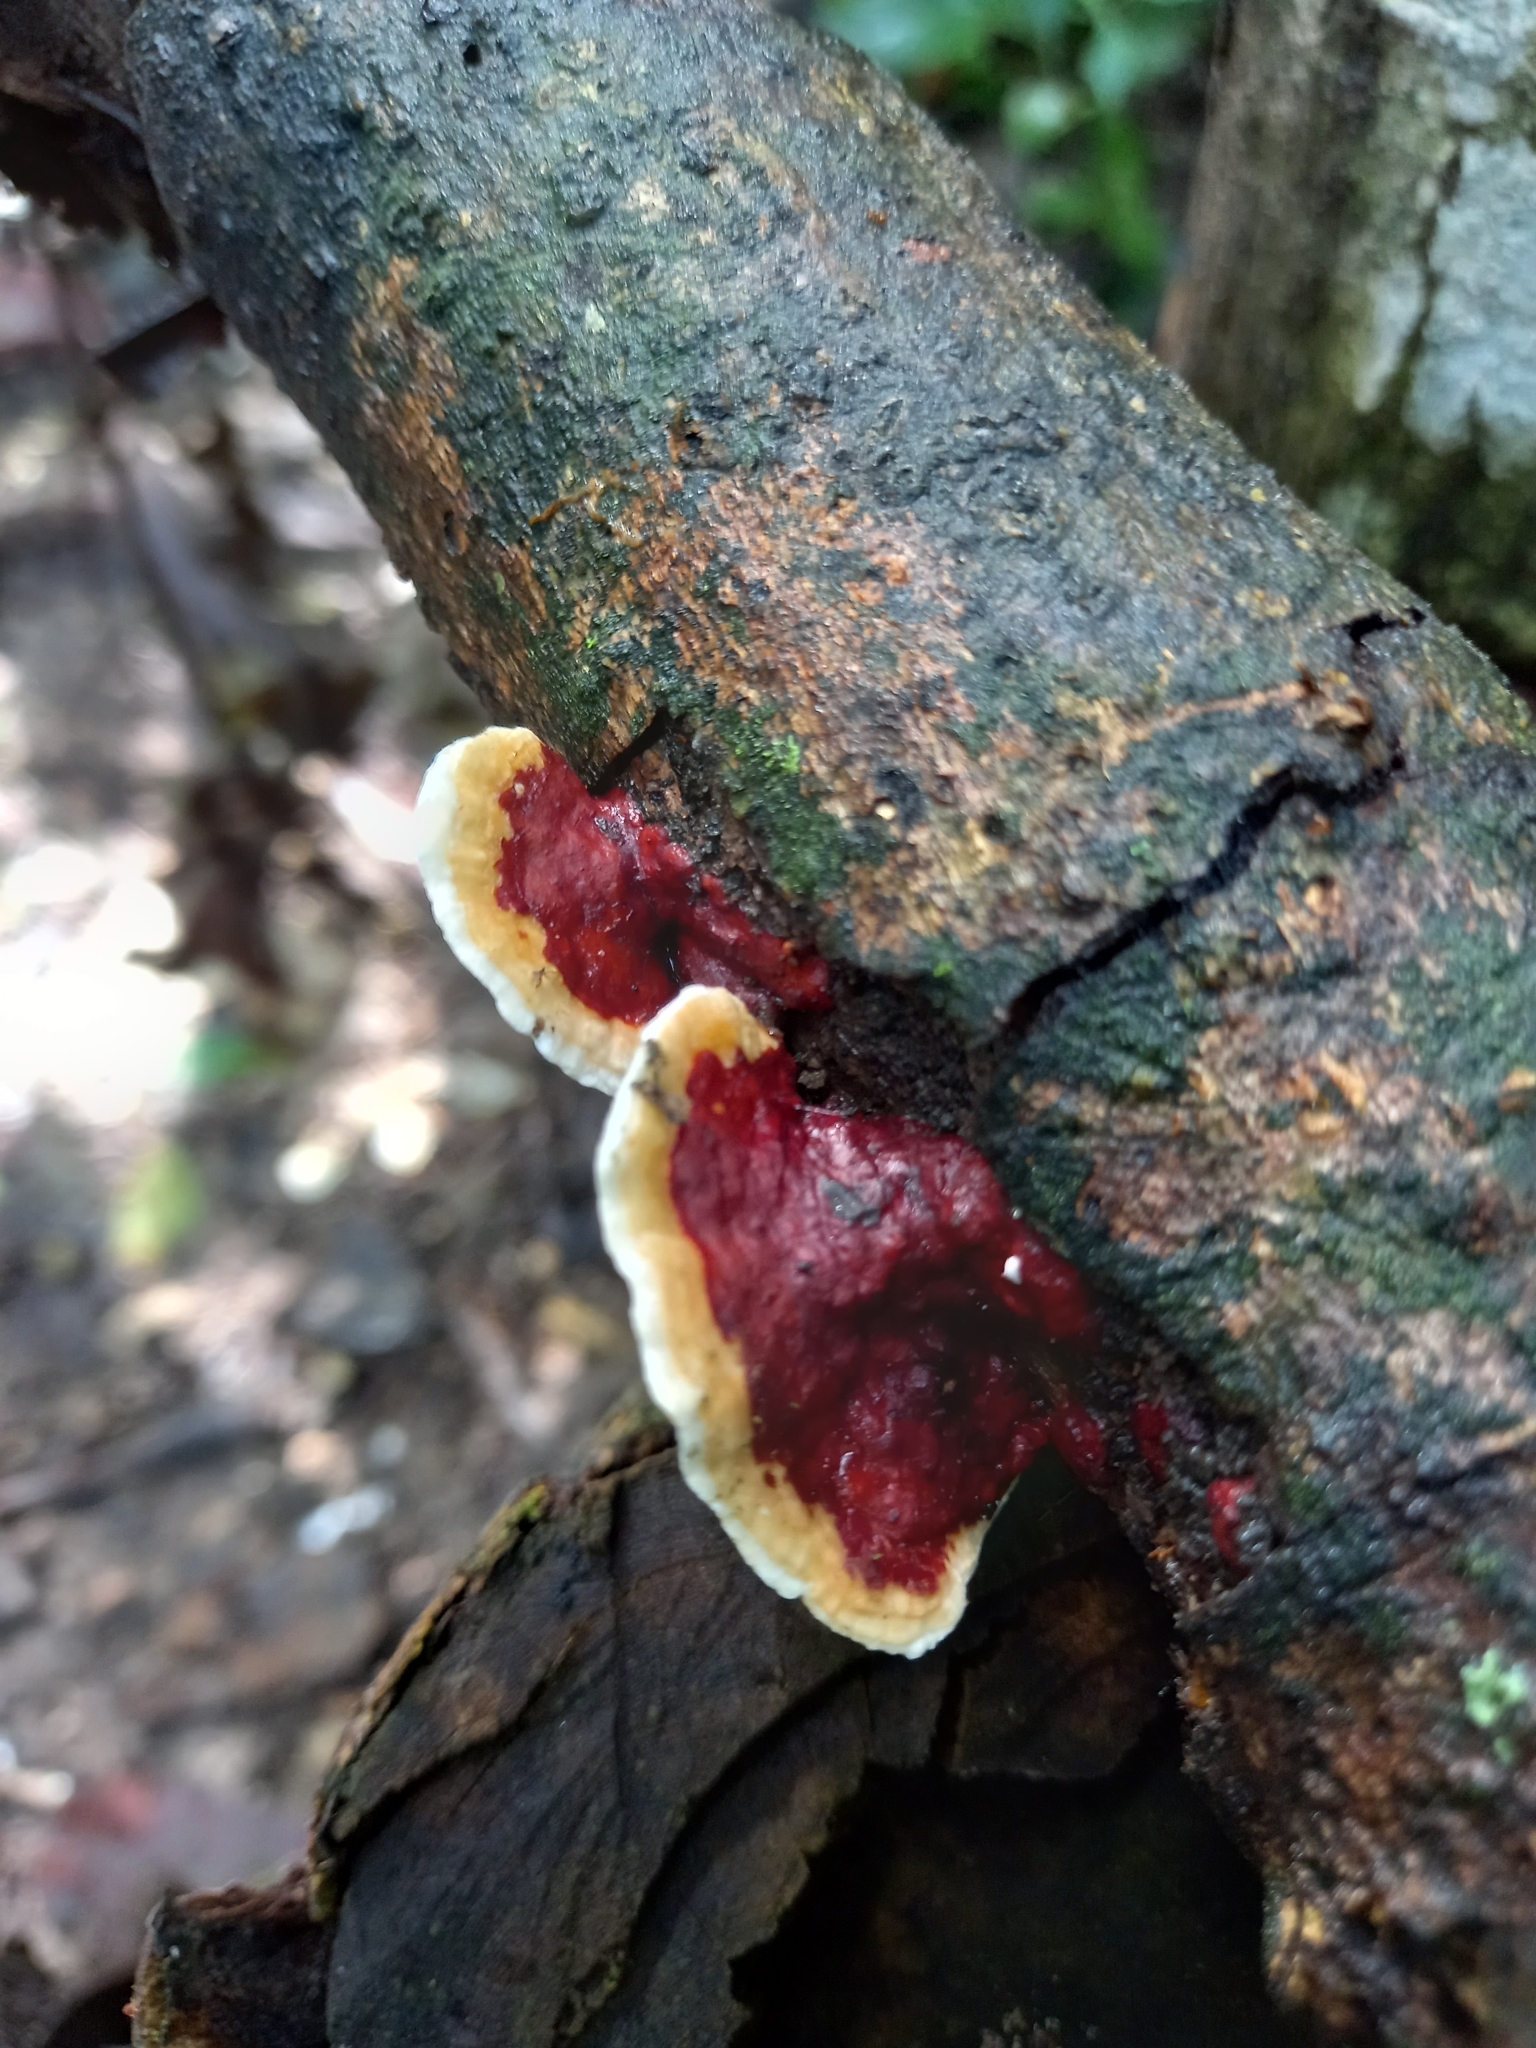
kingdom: Fungi
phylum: Basidiomycota
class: Agaricomycetes
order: Polyporales
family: Polyporaceae
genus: Earliella
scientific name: Earliella scabrosa
